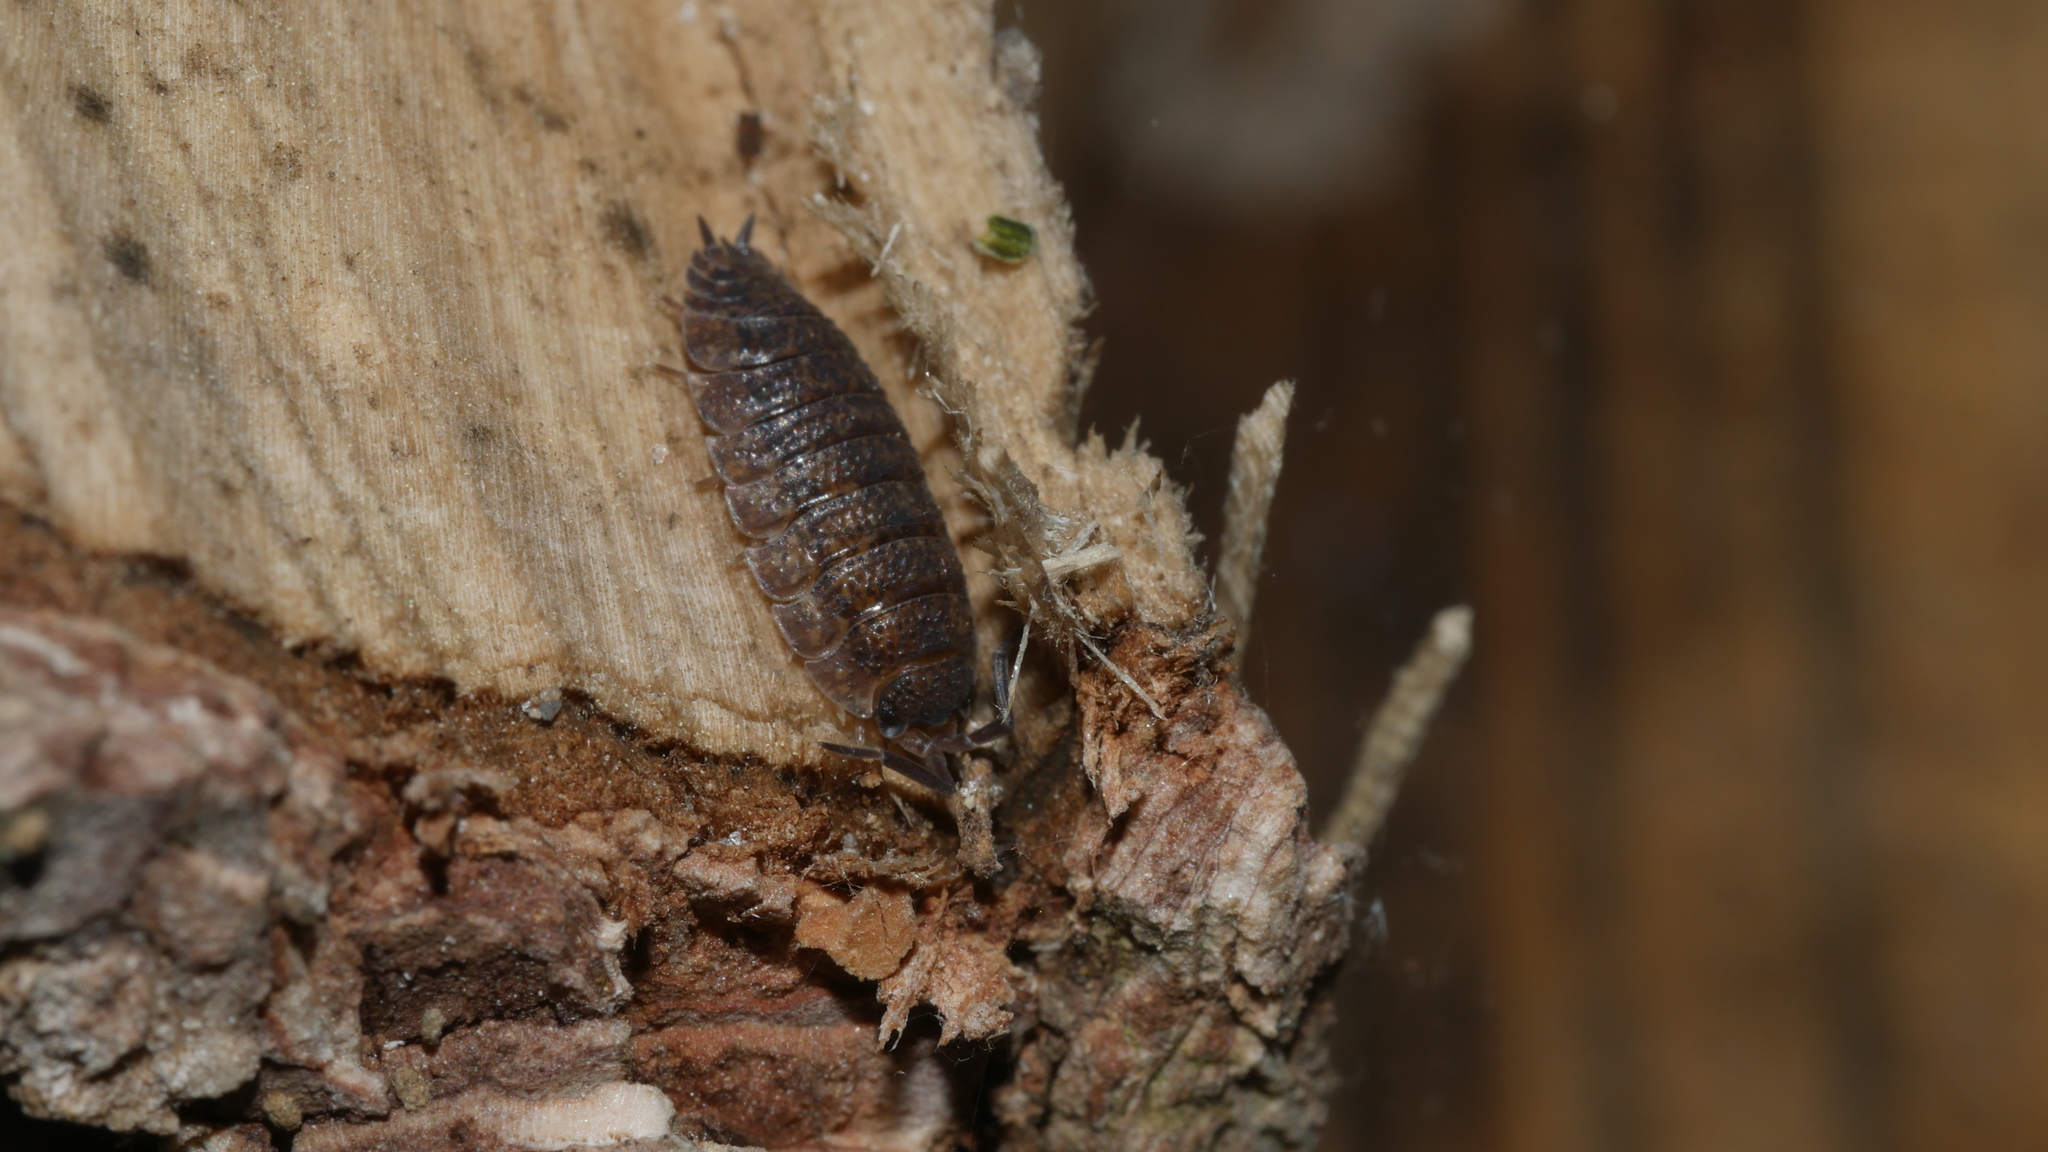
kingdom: Animalia
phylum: Arthropoda
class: Malacostraca
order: Isopoda
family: Porcellionidae
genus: Porcellio
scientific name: Porcellio scaber
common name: Common rough woodlouse
